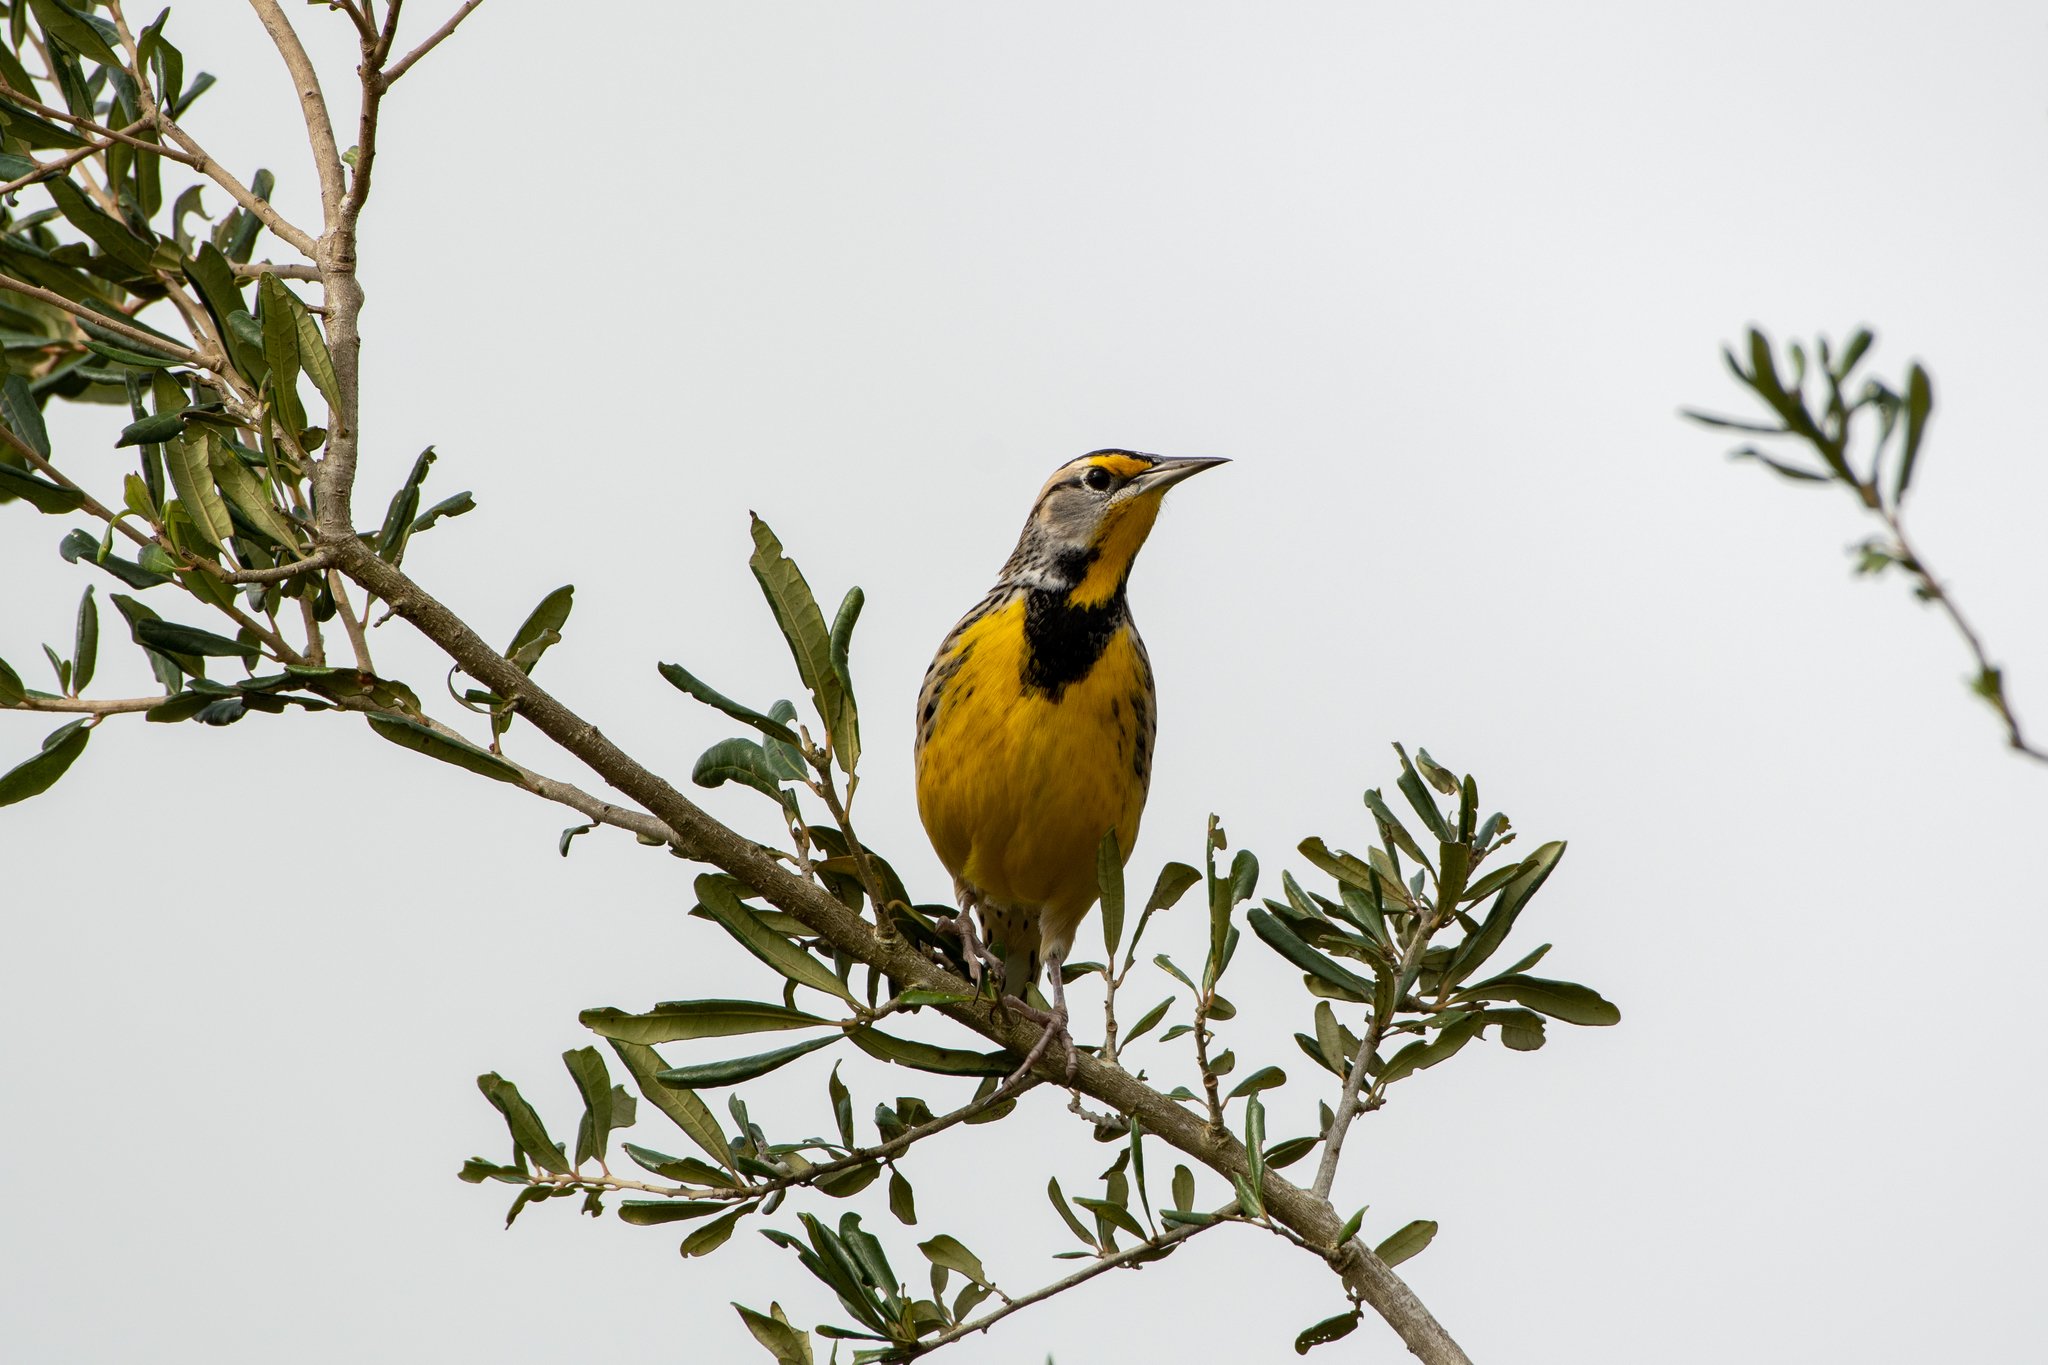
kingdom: Animalia
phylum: Chordata
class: Aves
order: Passeriformes
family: Icteridae
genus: Sturnella
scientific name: Sturnella magna
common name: Eastern meadowlark
